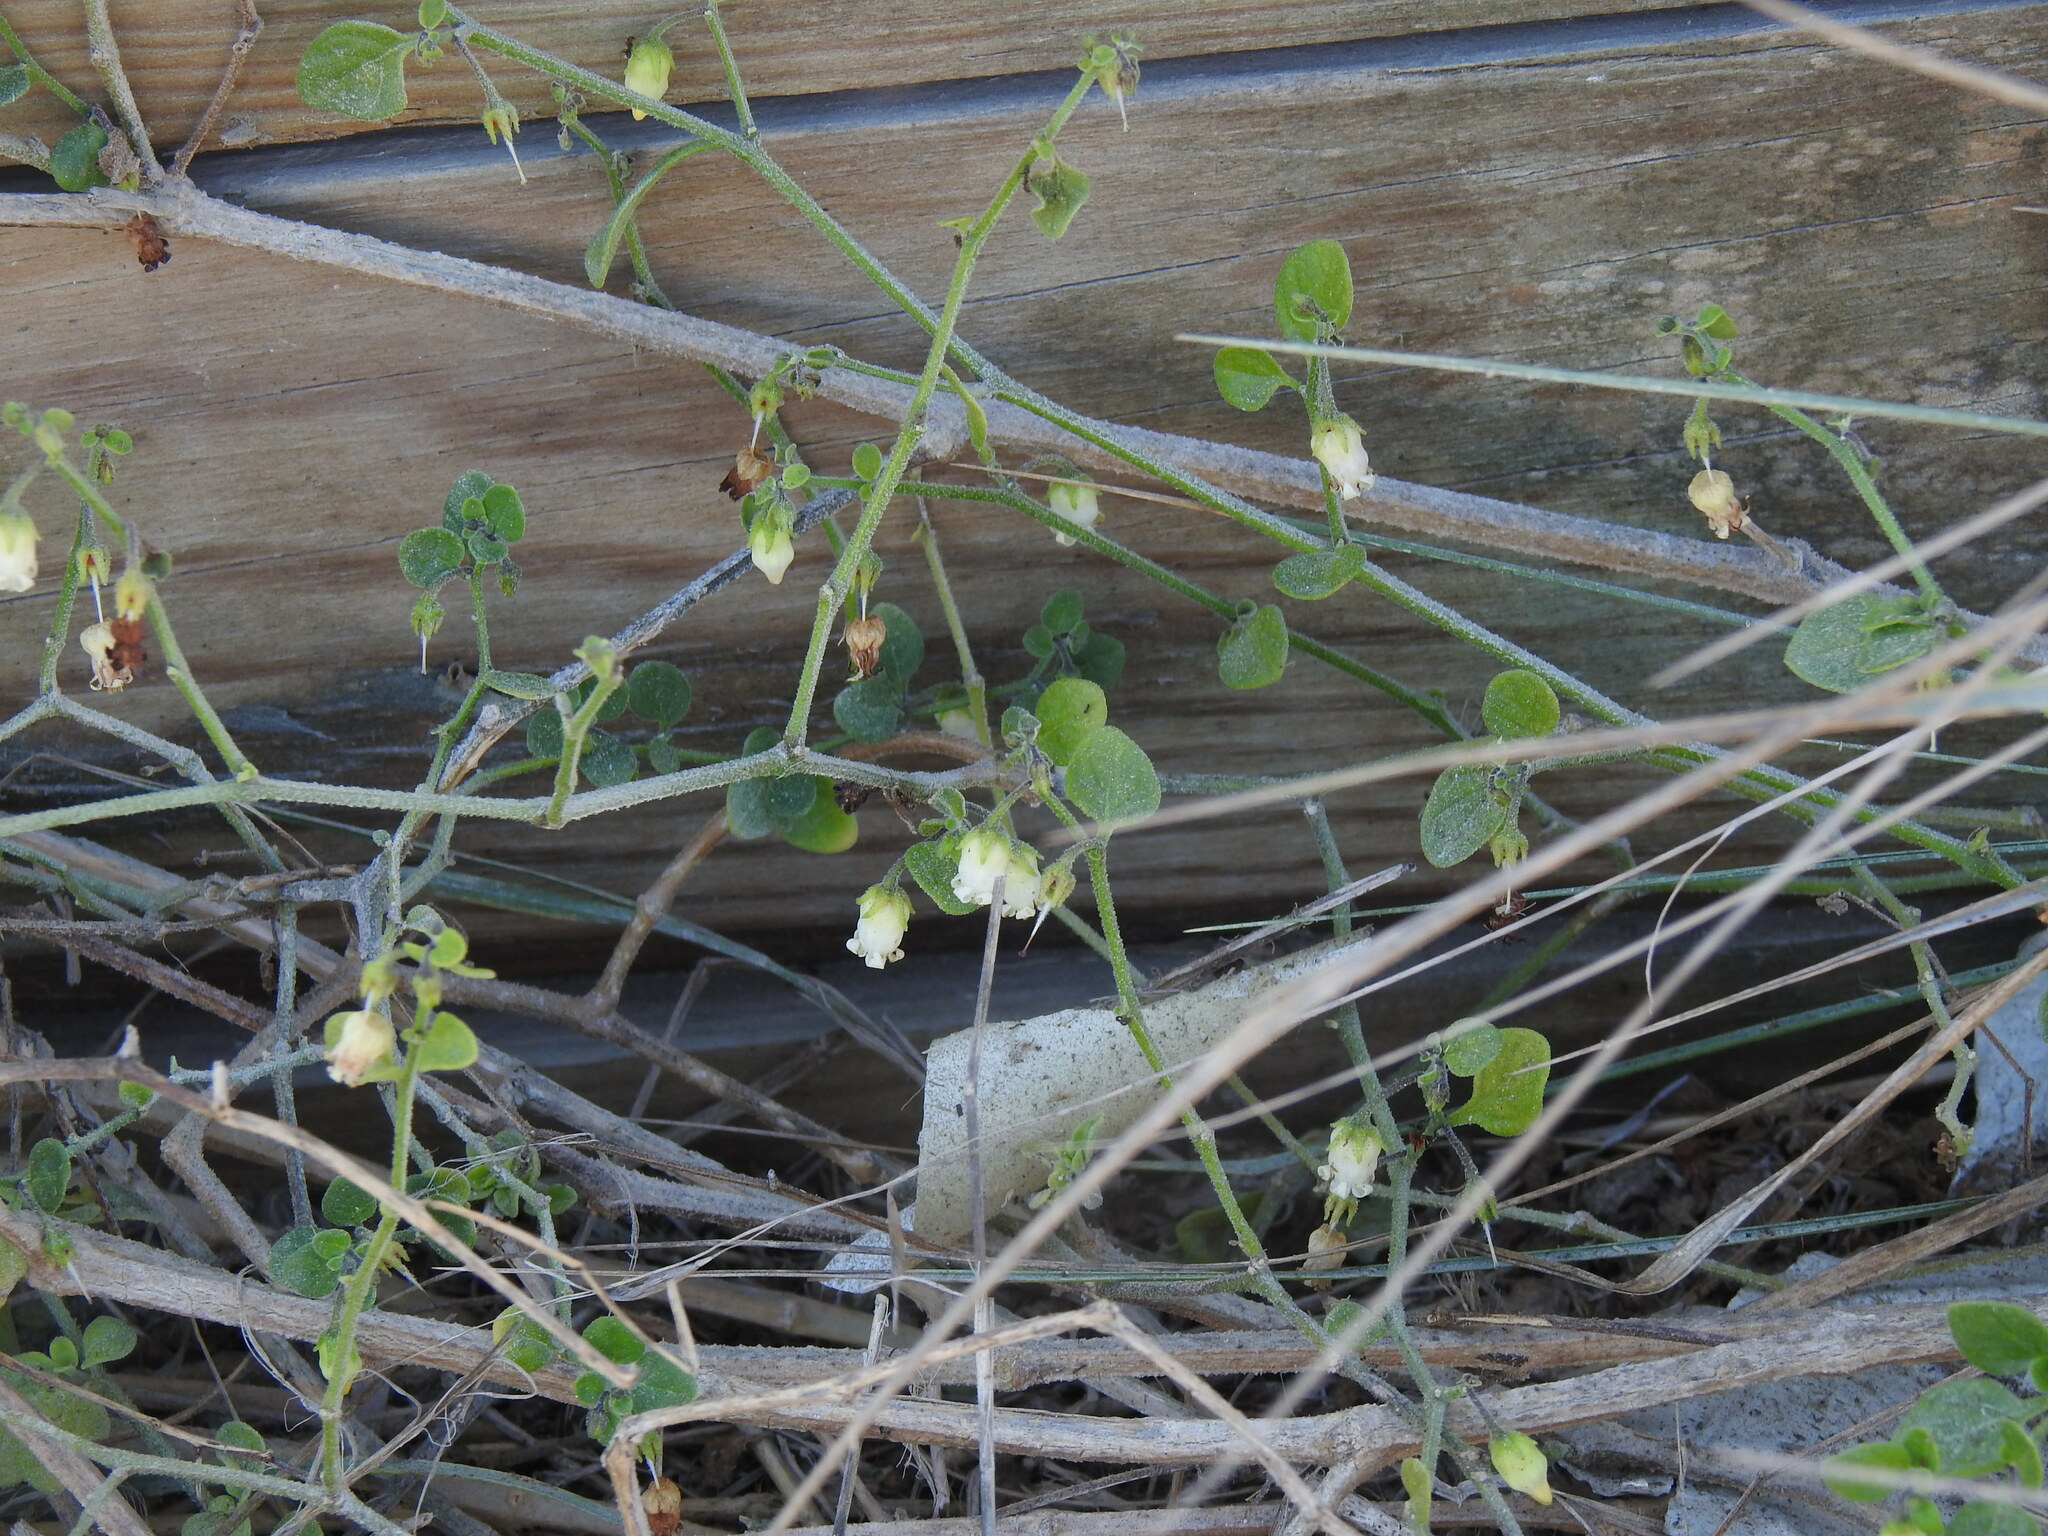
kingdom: Plantae
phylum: Tracheophyta
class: Magnoliopsida
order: Solanales
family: Solanaceae
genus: Salpichroa
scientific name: Salpichroa origanifolia
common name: Lily-of-the-valley-vine
